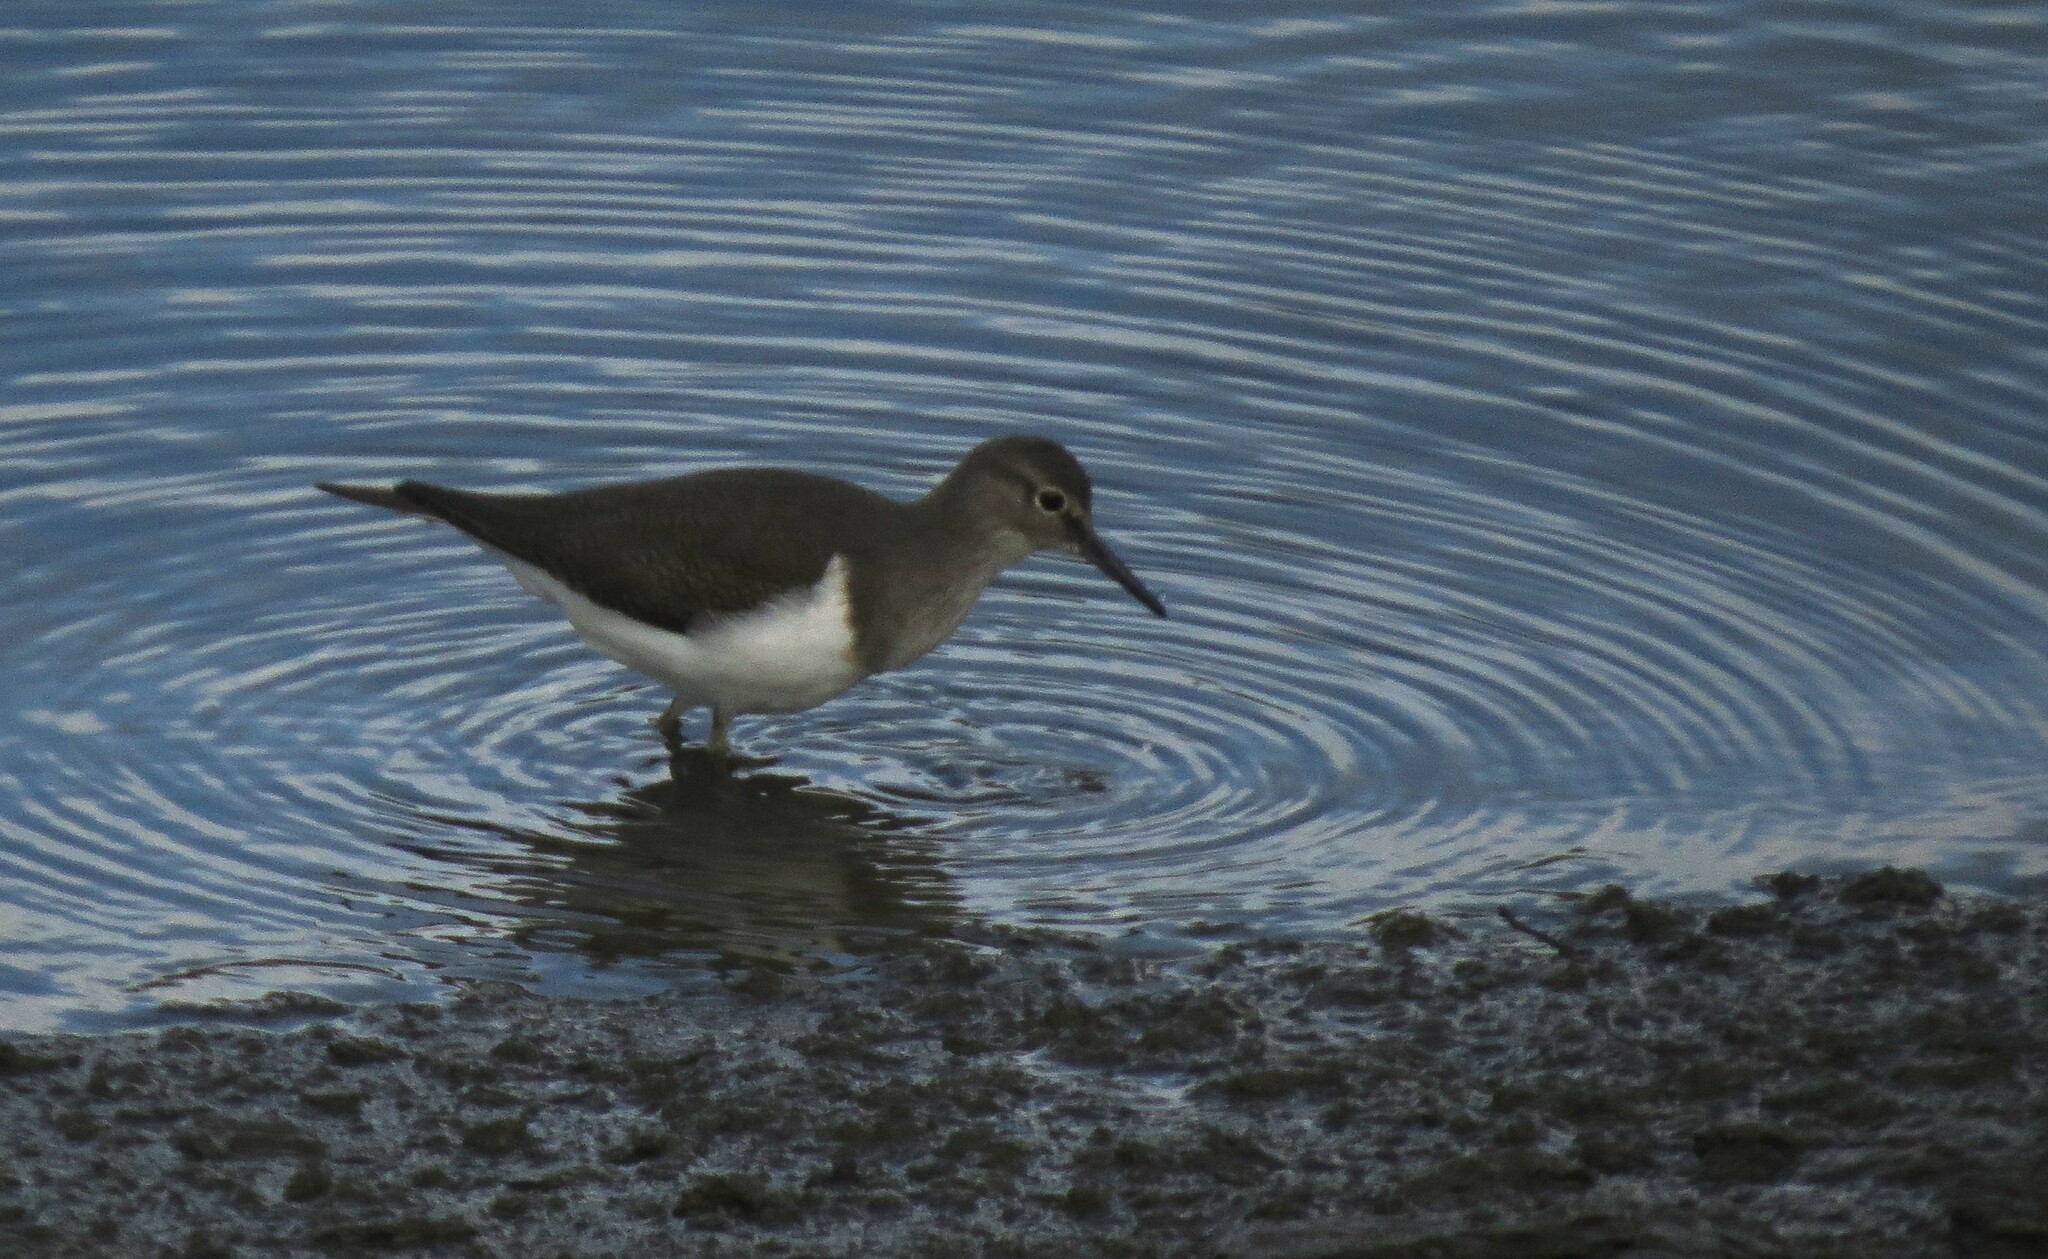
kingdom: Animalia
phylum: Chordata
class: Aves
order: Charadriiformes
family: Scolopacidae
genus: Actitis
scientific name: Actitis hypoleucos
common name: Common sandpiper
